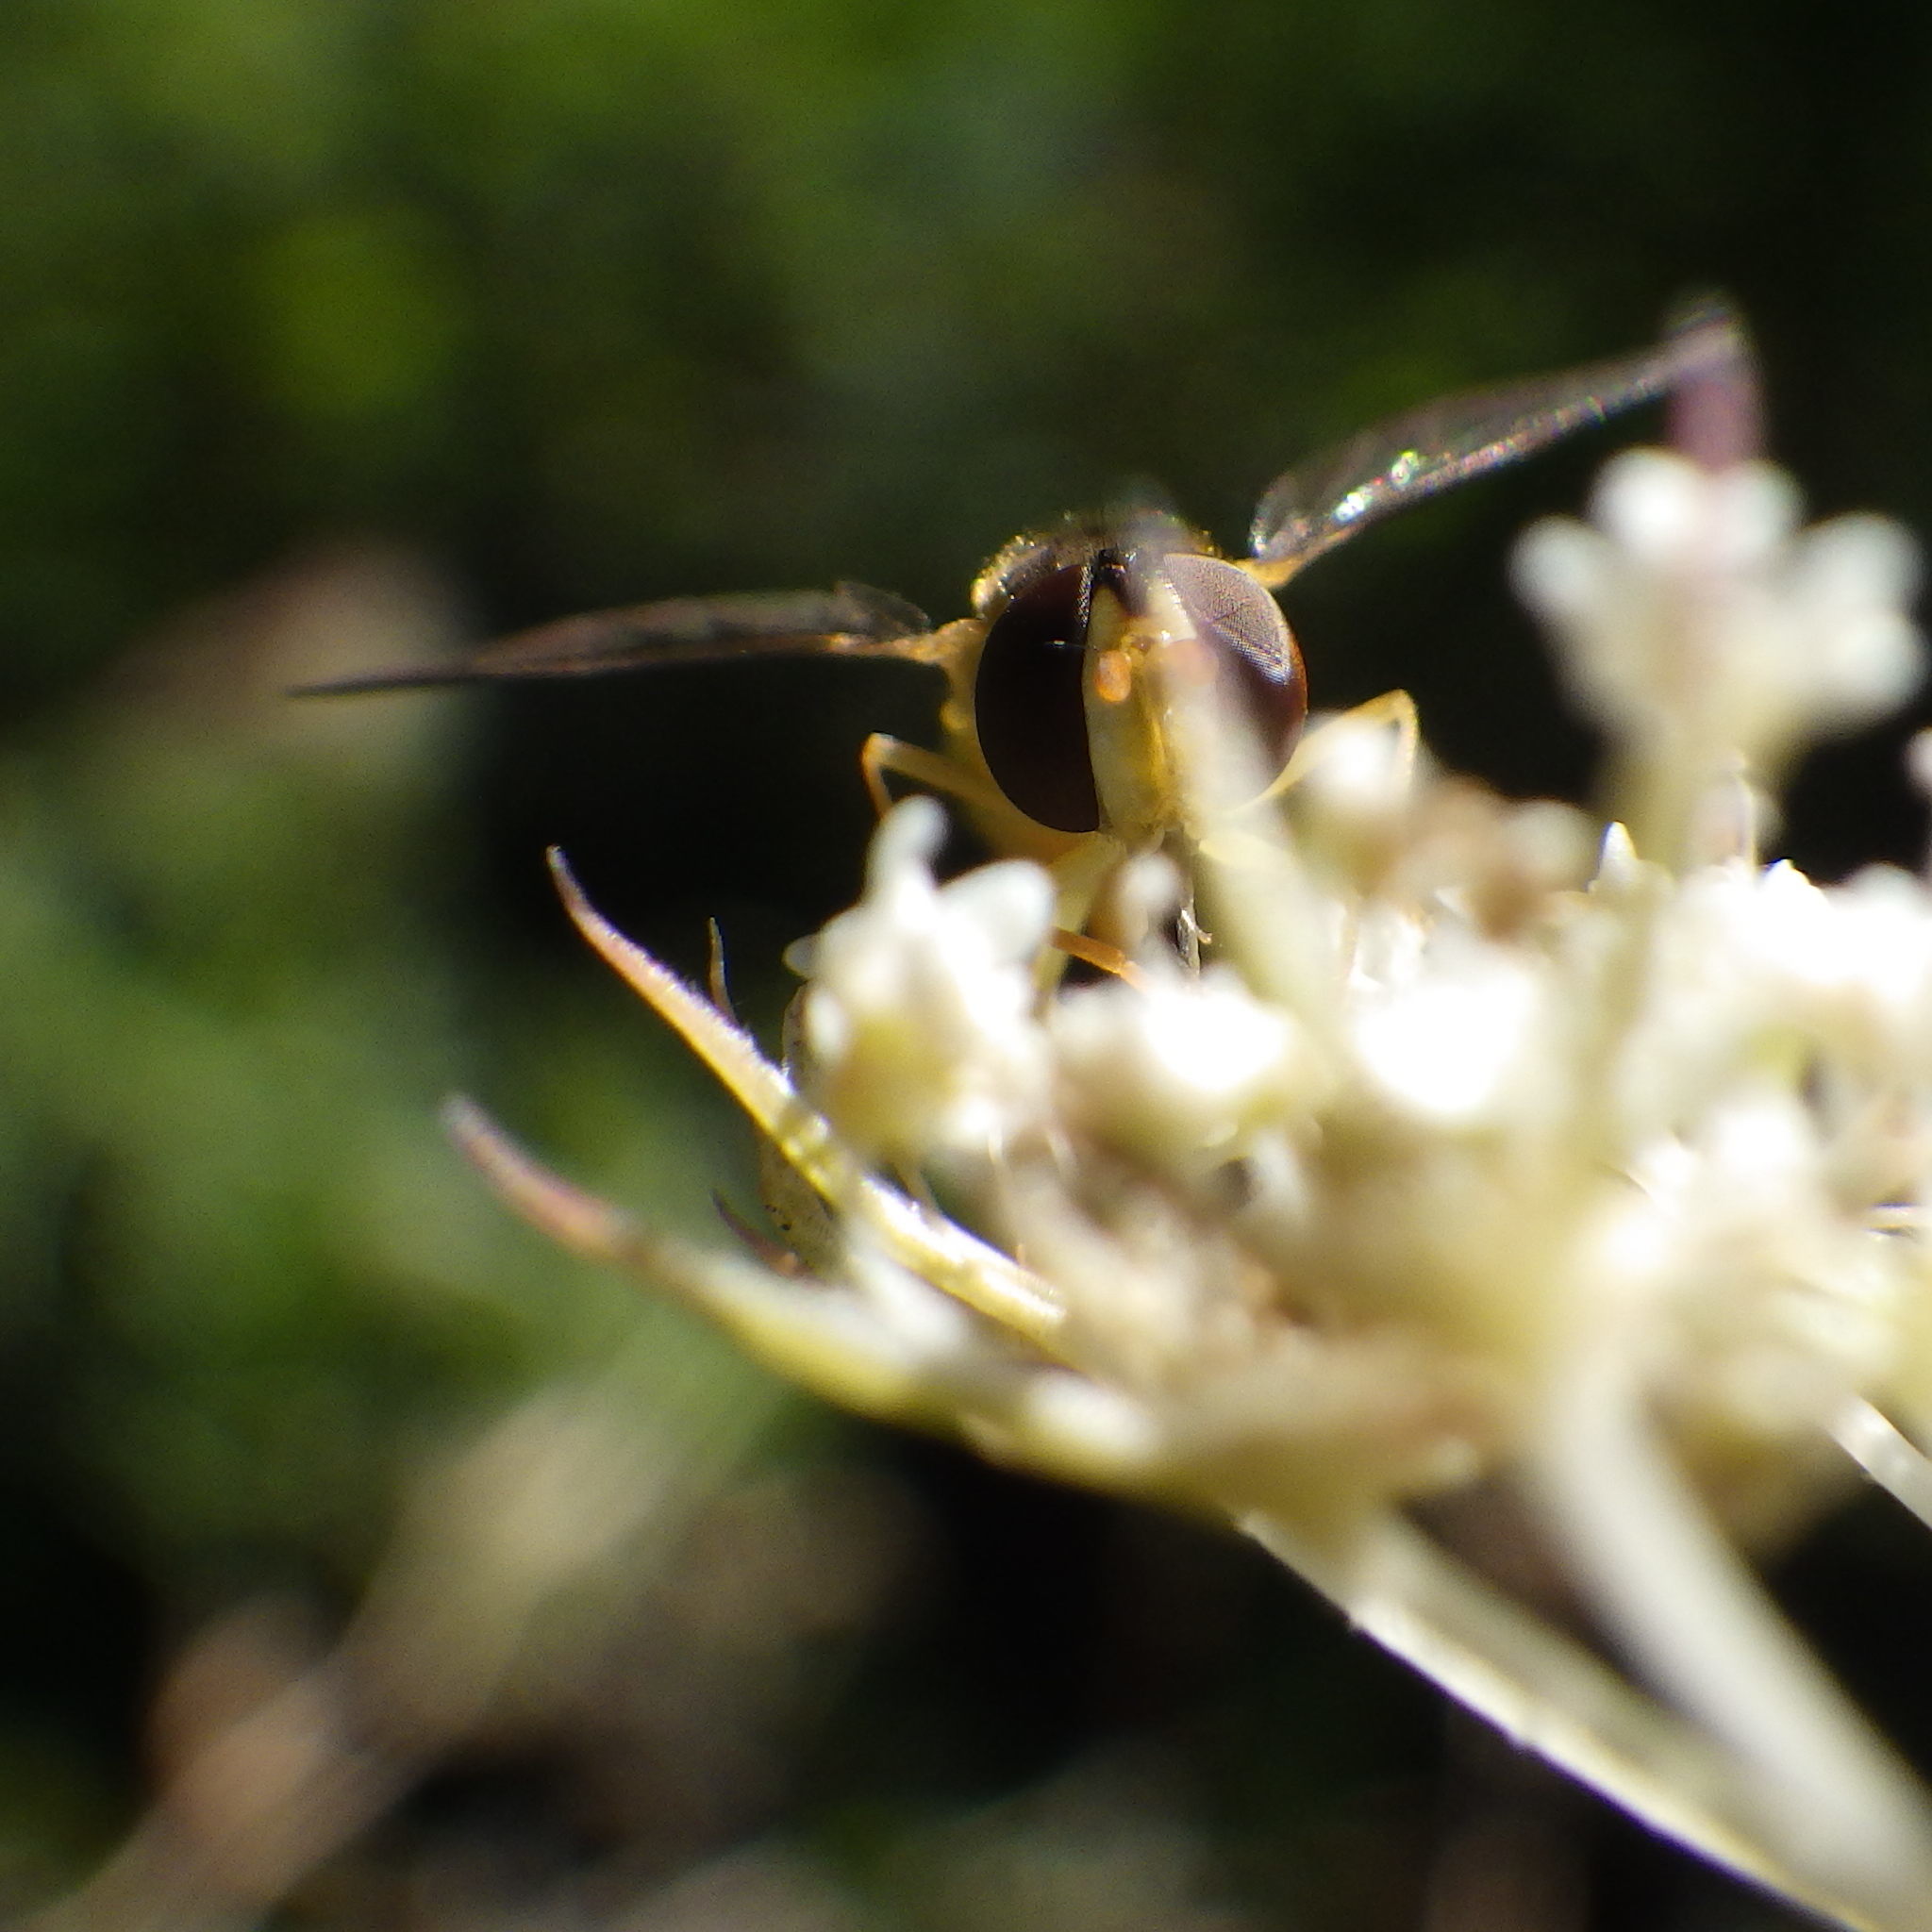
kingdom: Animalia
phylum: Arthropoda
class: Insecta
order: Diptera
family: Syrphidae
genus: Sphaerophoria
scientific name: Sphaerophoria
